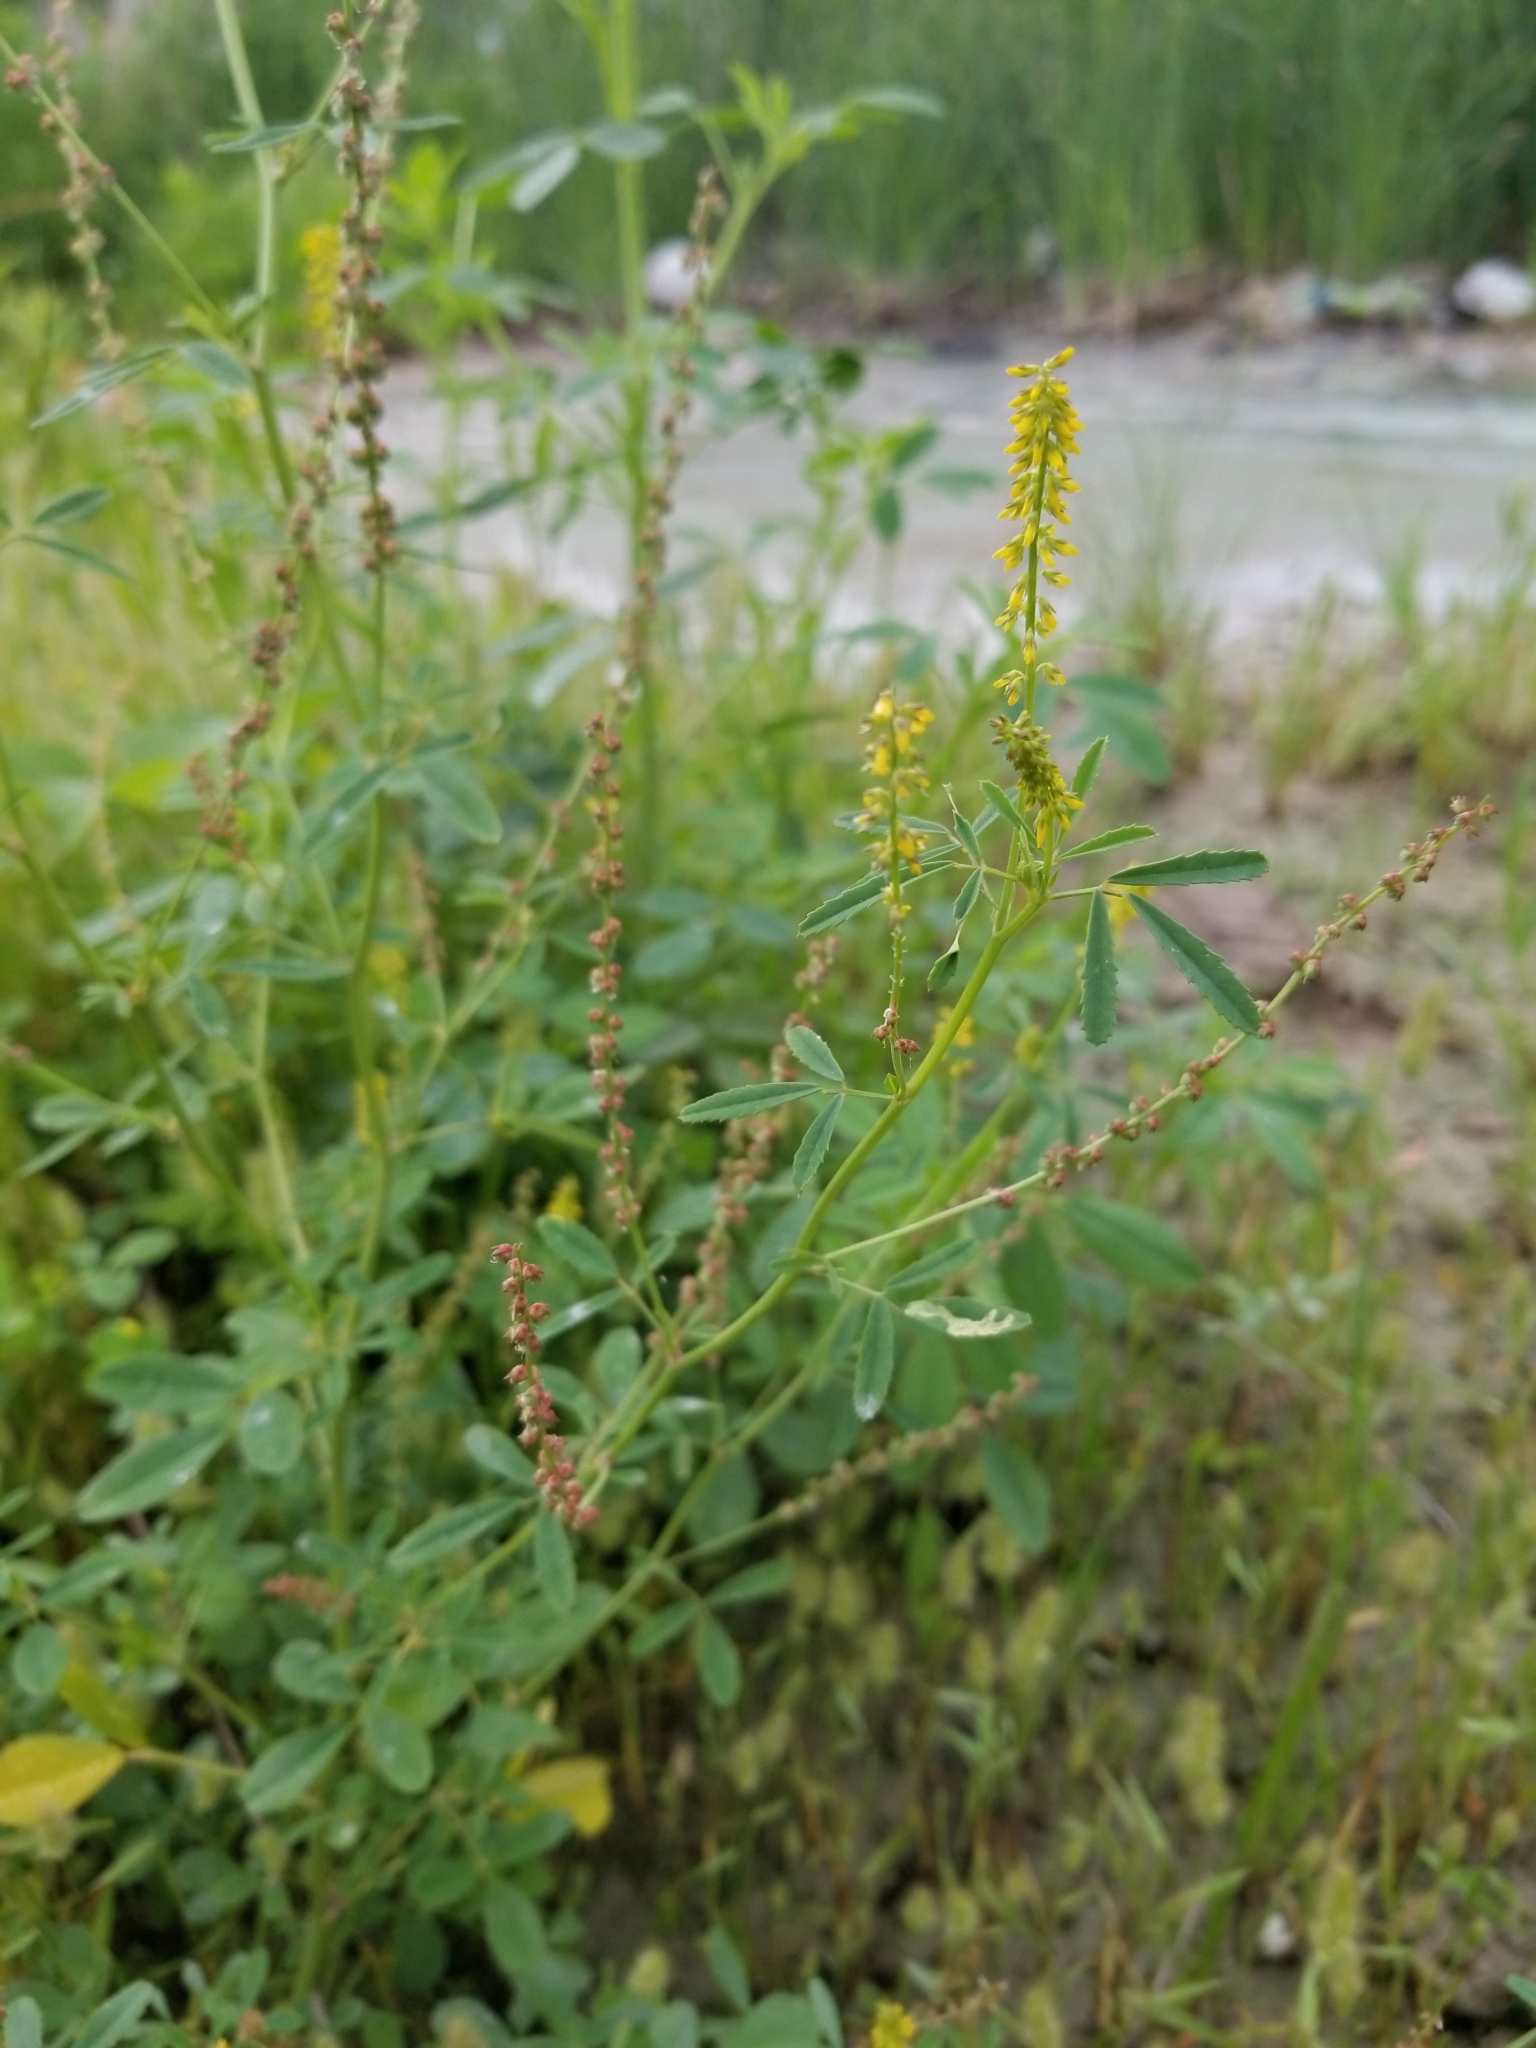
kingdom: Plantae
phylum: Tracheophyta
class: Magnoliopsida
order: Fabales
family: Fabaceae
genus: Melilotus
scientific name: Melilotus indicus
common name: Small melilot
